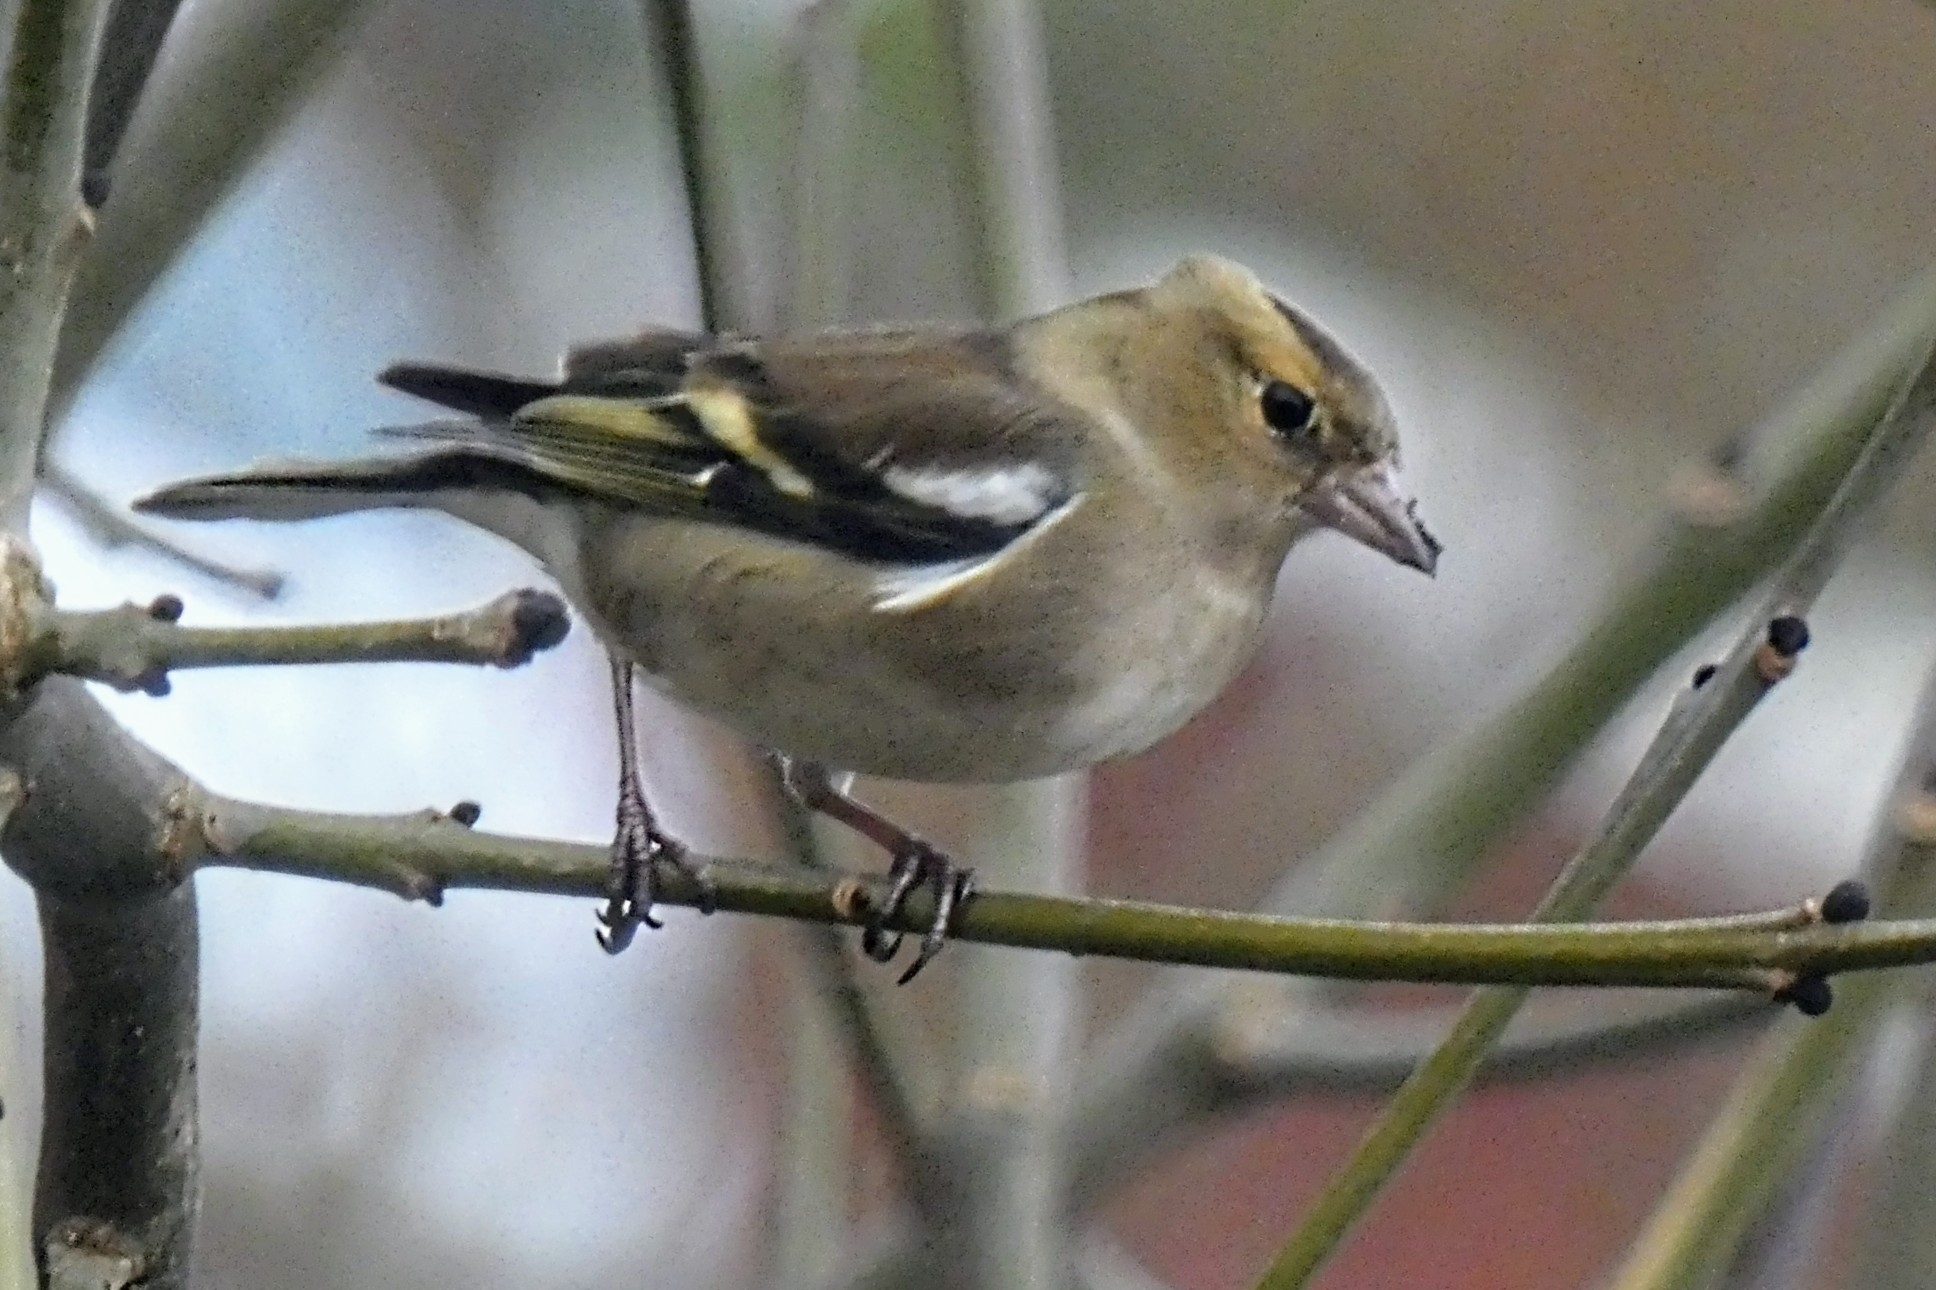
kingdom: Animalia
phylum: Chordata
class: Aves
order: Passeriformes
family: Fringillidae
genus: Fringilla
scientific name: Fringilla coelebs
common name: Common chaffinch
